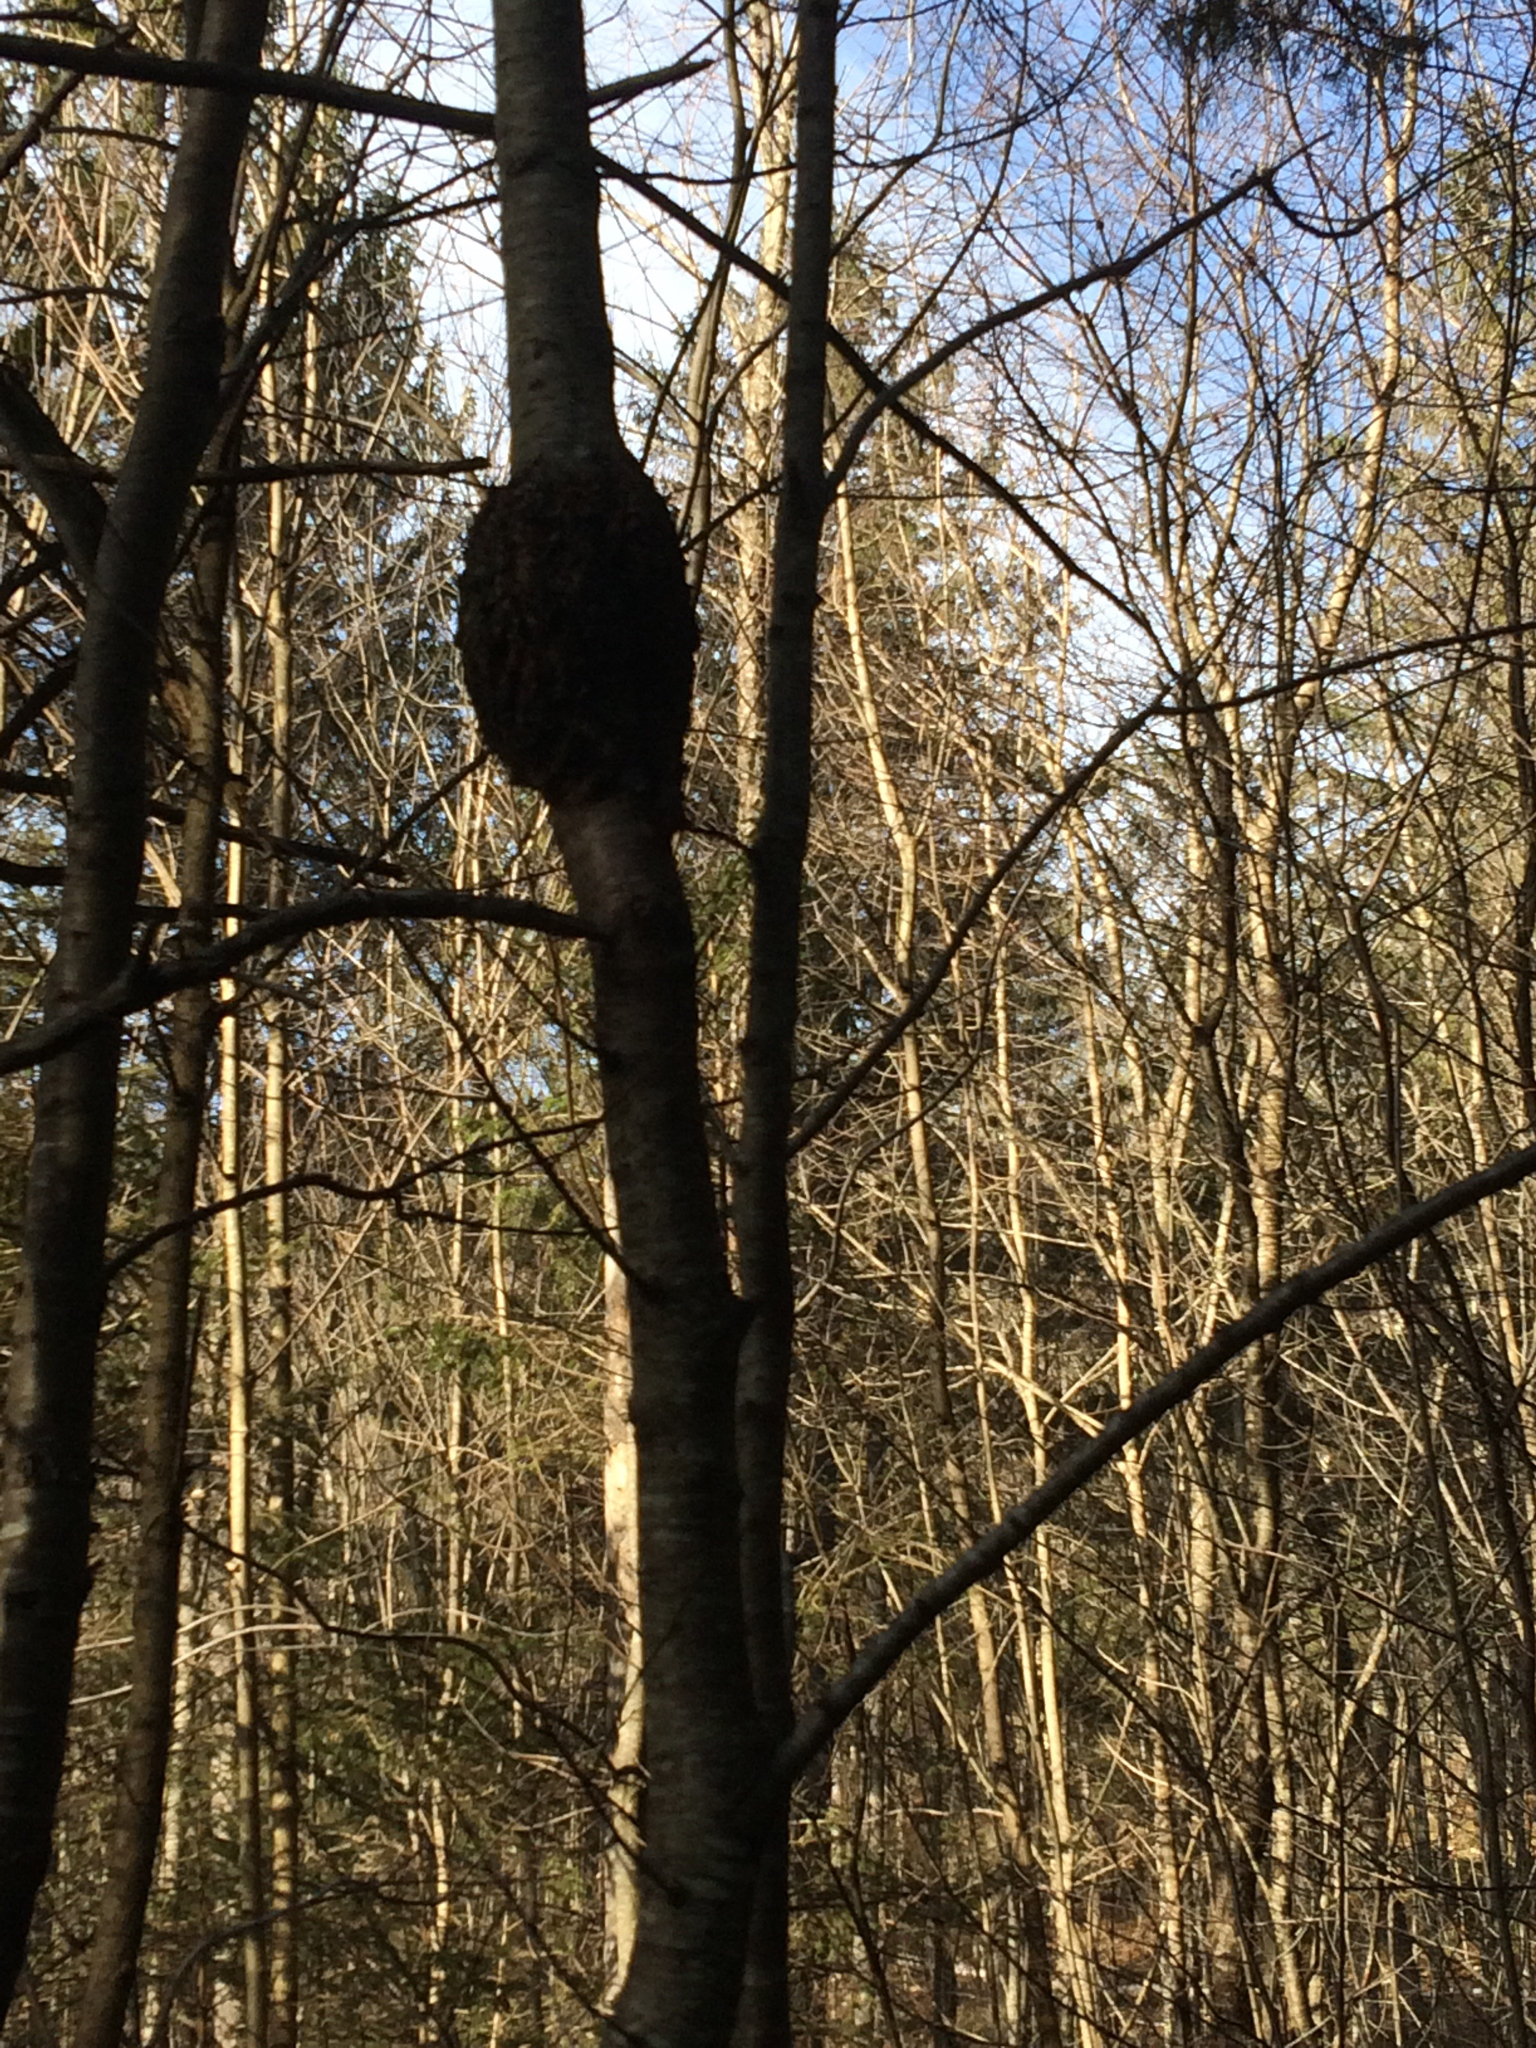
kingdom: Fungi
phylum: Ascomycota
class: Dothideomycetes
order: Venturiales
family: Venturiaceae
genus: Apiosporina
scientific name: Apiosporina morbosa
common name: Black knot
